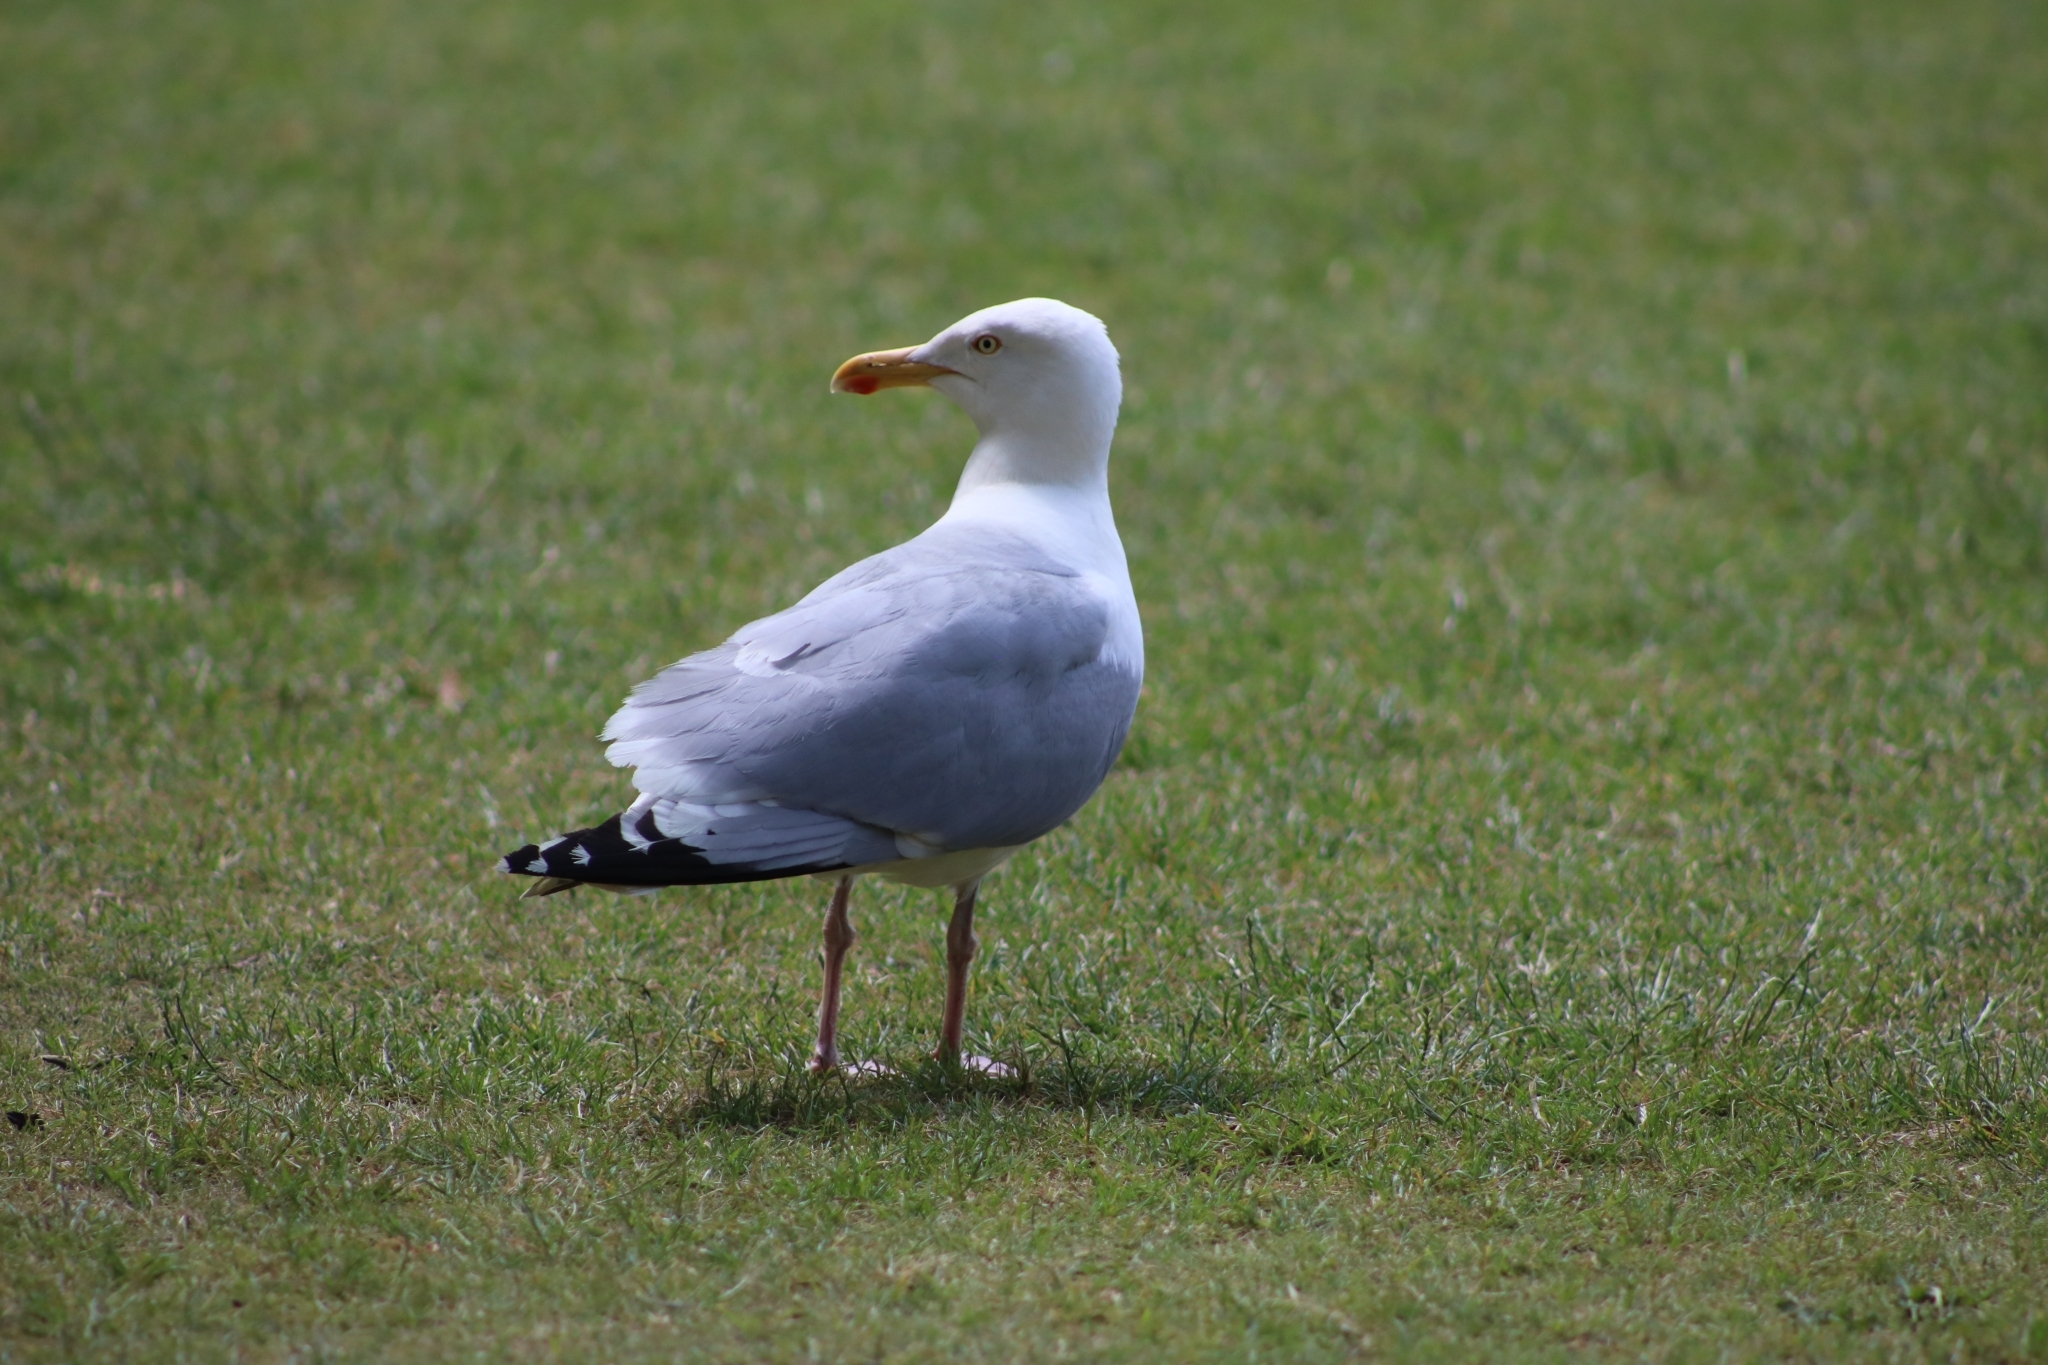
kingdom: Animalia
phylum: Chordata
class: Aves
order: Charadriiformes
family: Laridae
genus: Larus
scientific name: Larus argentatus
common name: Herring gull
